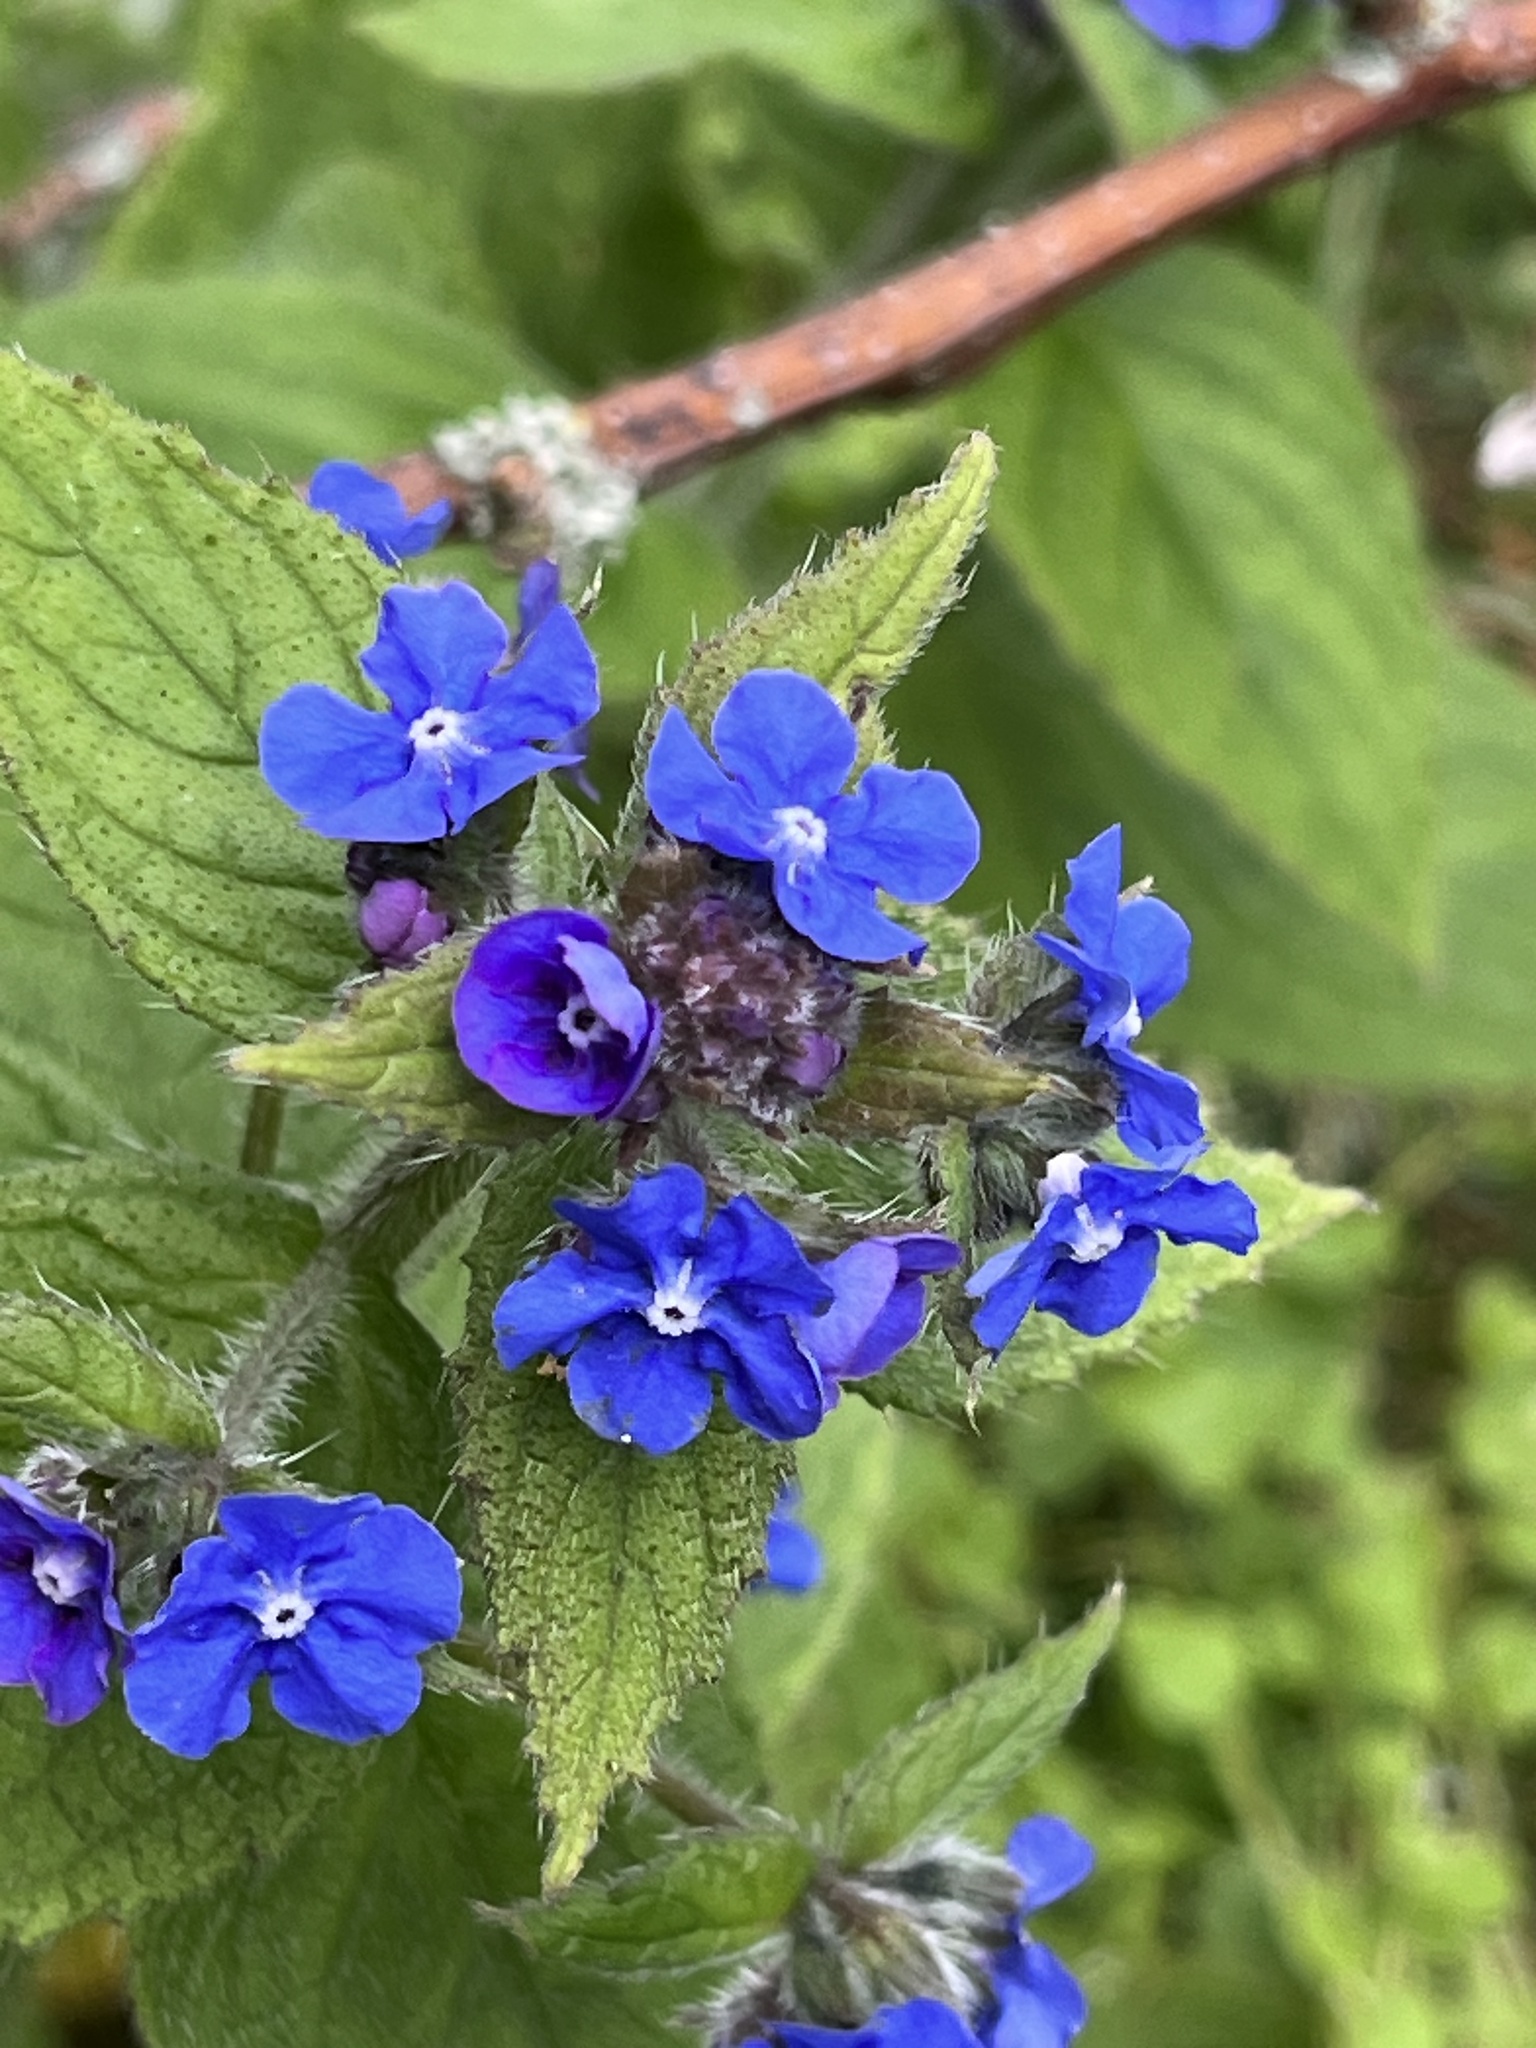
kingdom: Plantae
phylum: Tracheophyta
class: Magnoliopsida
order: Boraginales
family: Boraginaceae
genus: Pentaglottis
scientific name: Pentaglottis sempervirens
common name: Green alkanet
